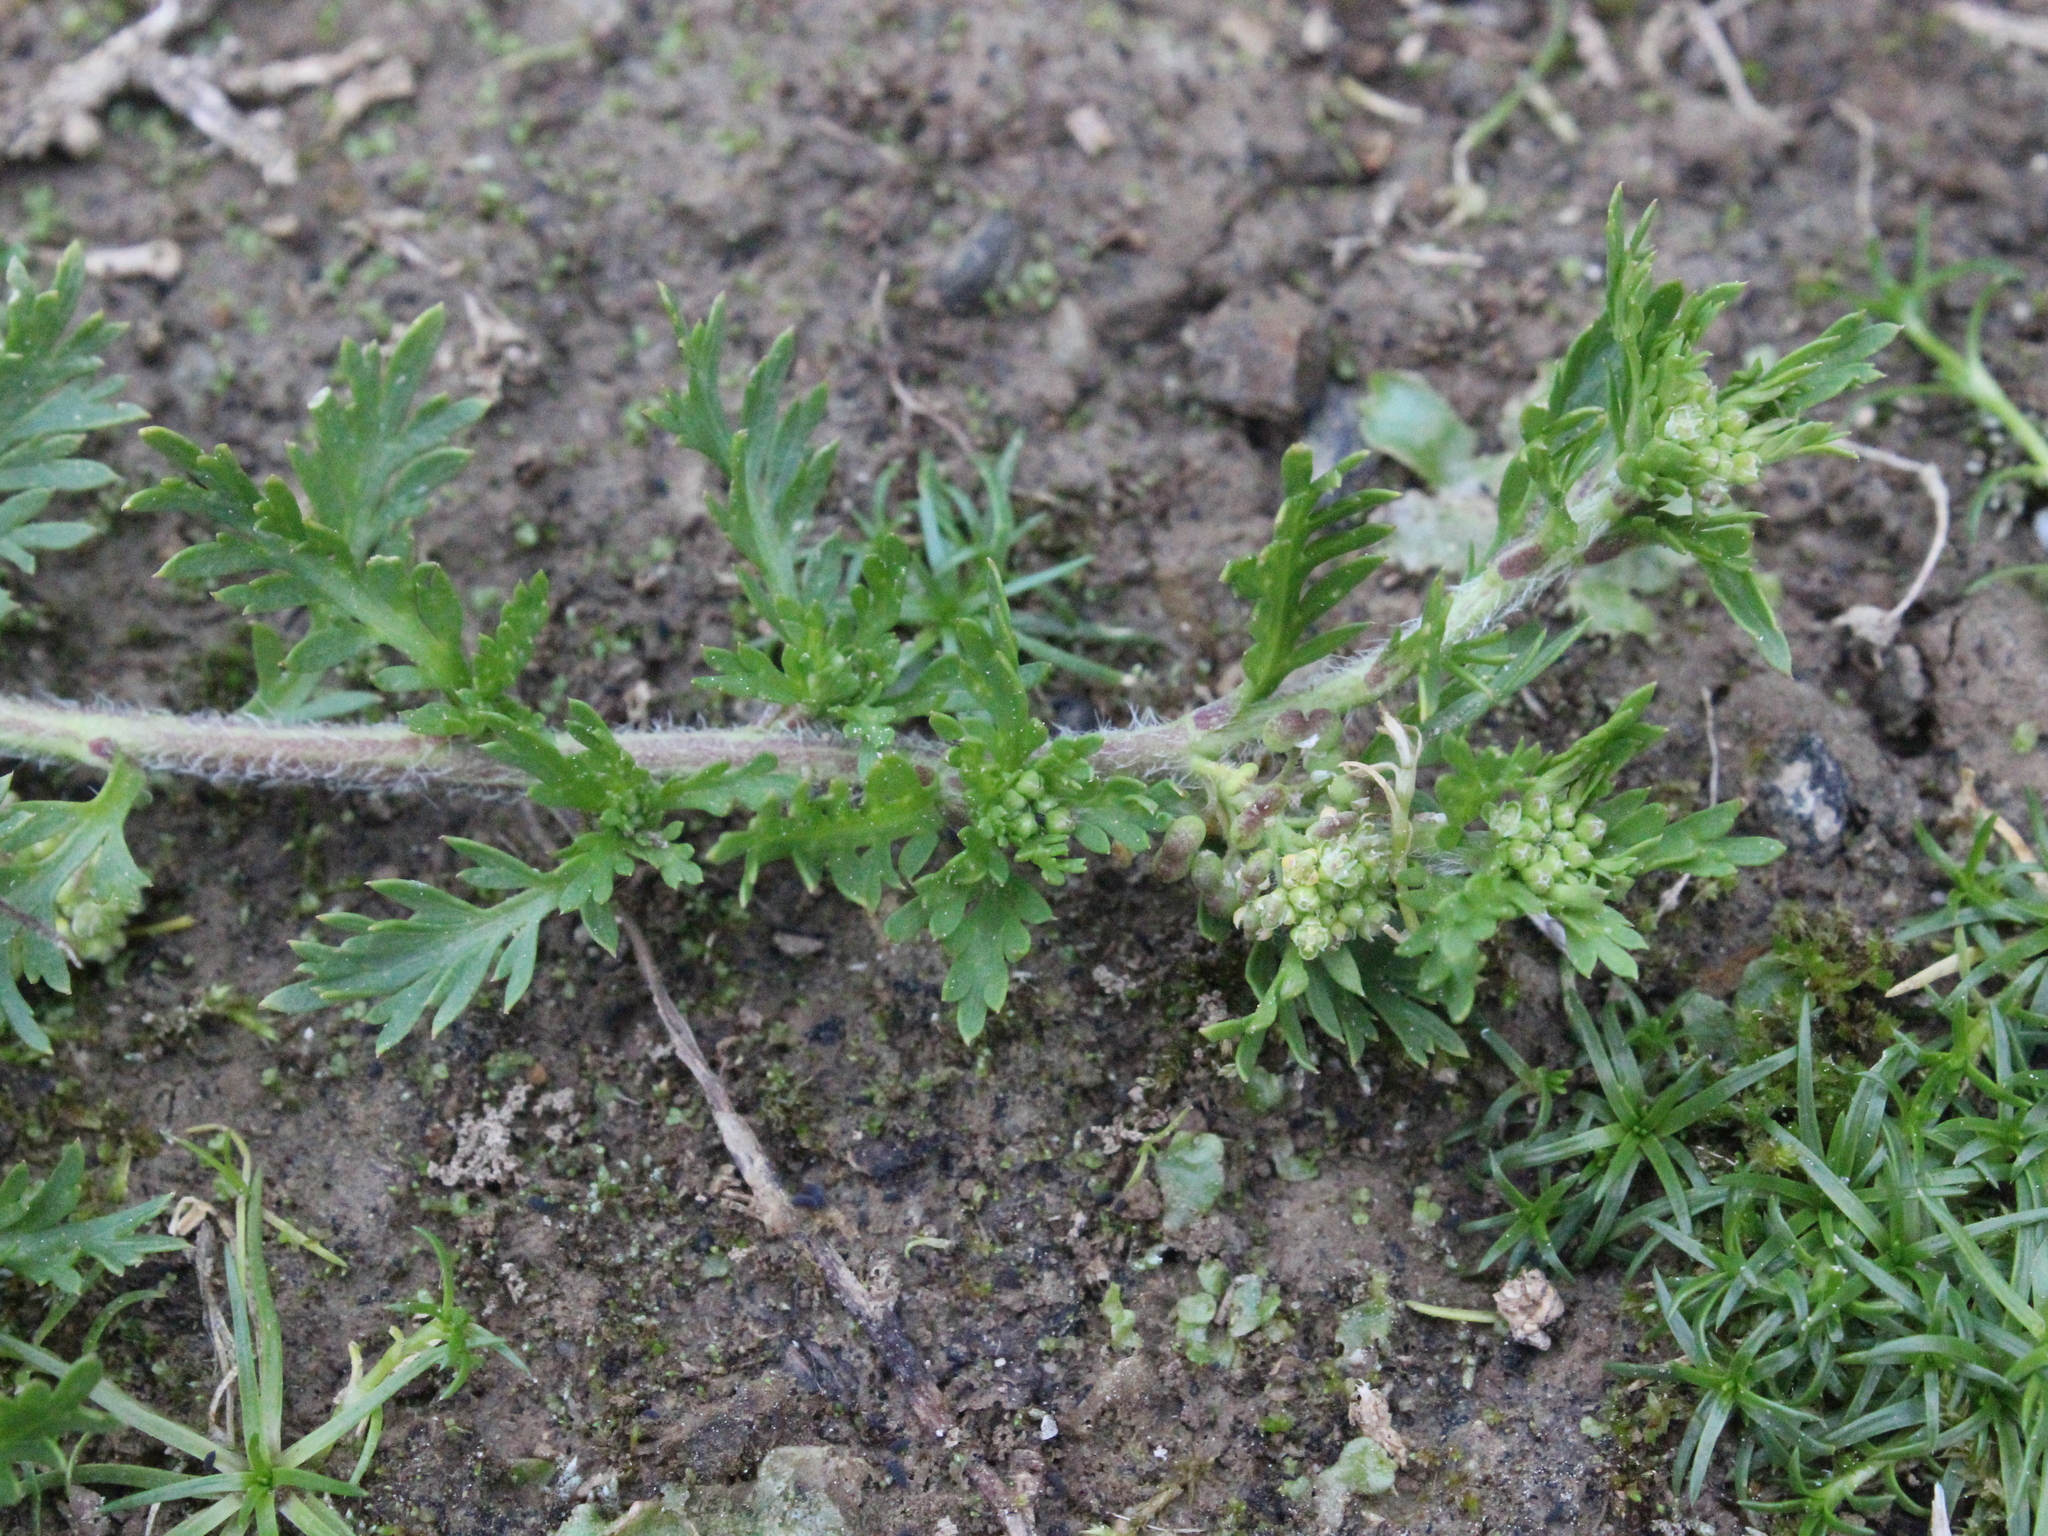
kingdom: Plantae
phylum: Tracheophyta
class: Magnoliopsida
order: Brassicales
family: Brassicaceae
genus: Lepidium
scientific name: Lepidium didymum
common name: Lesser swinecress
